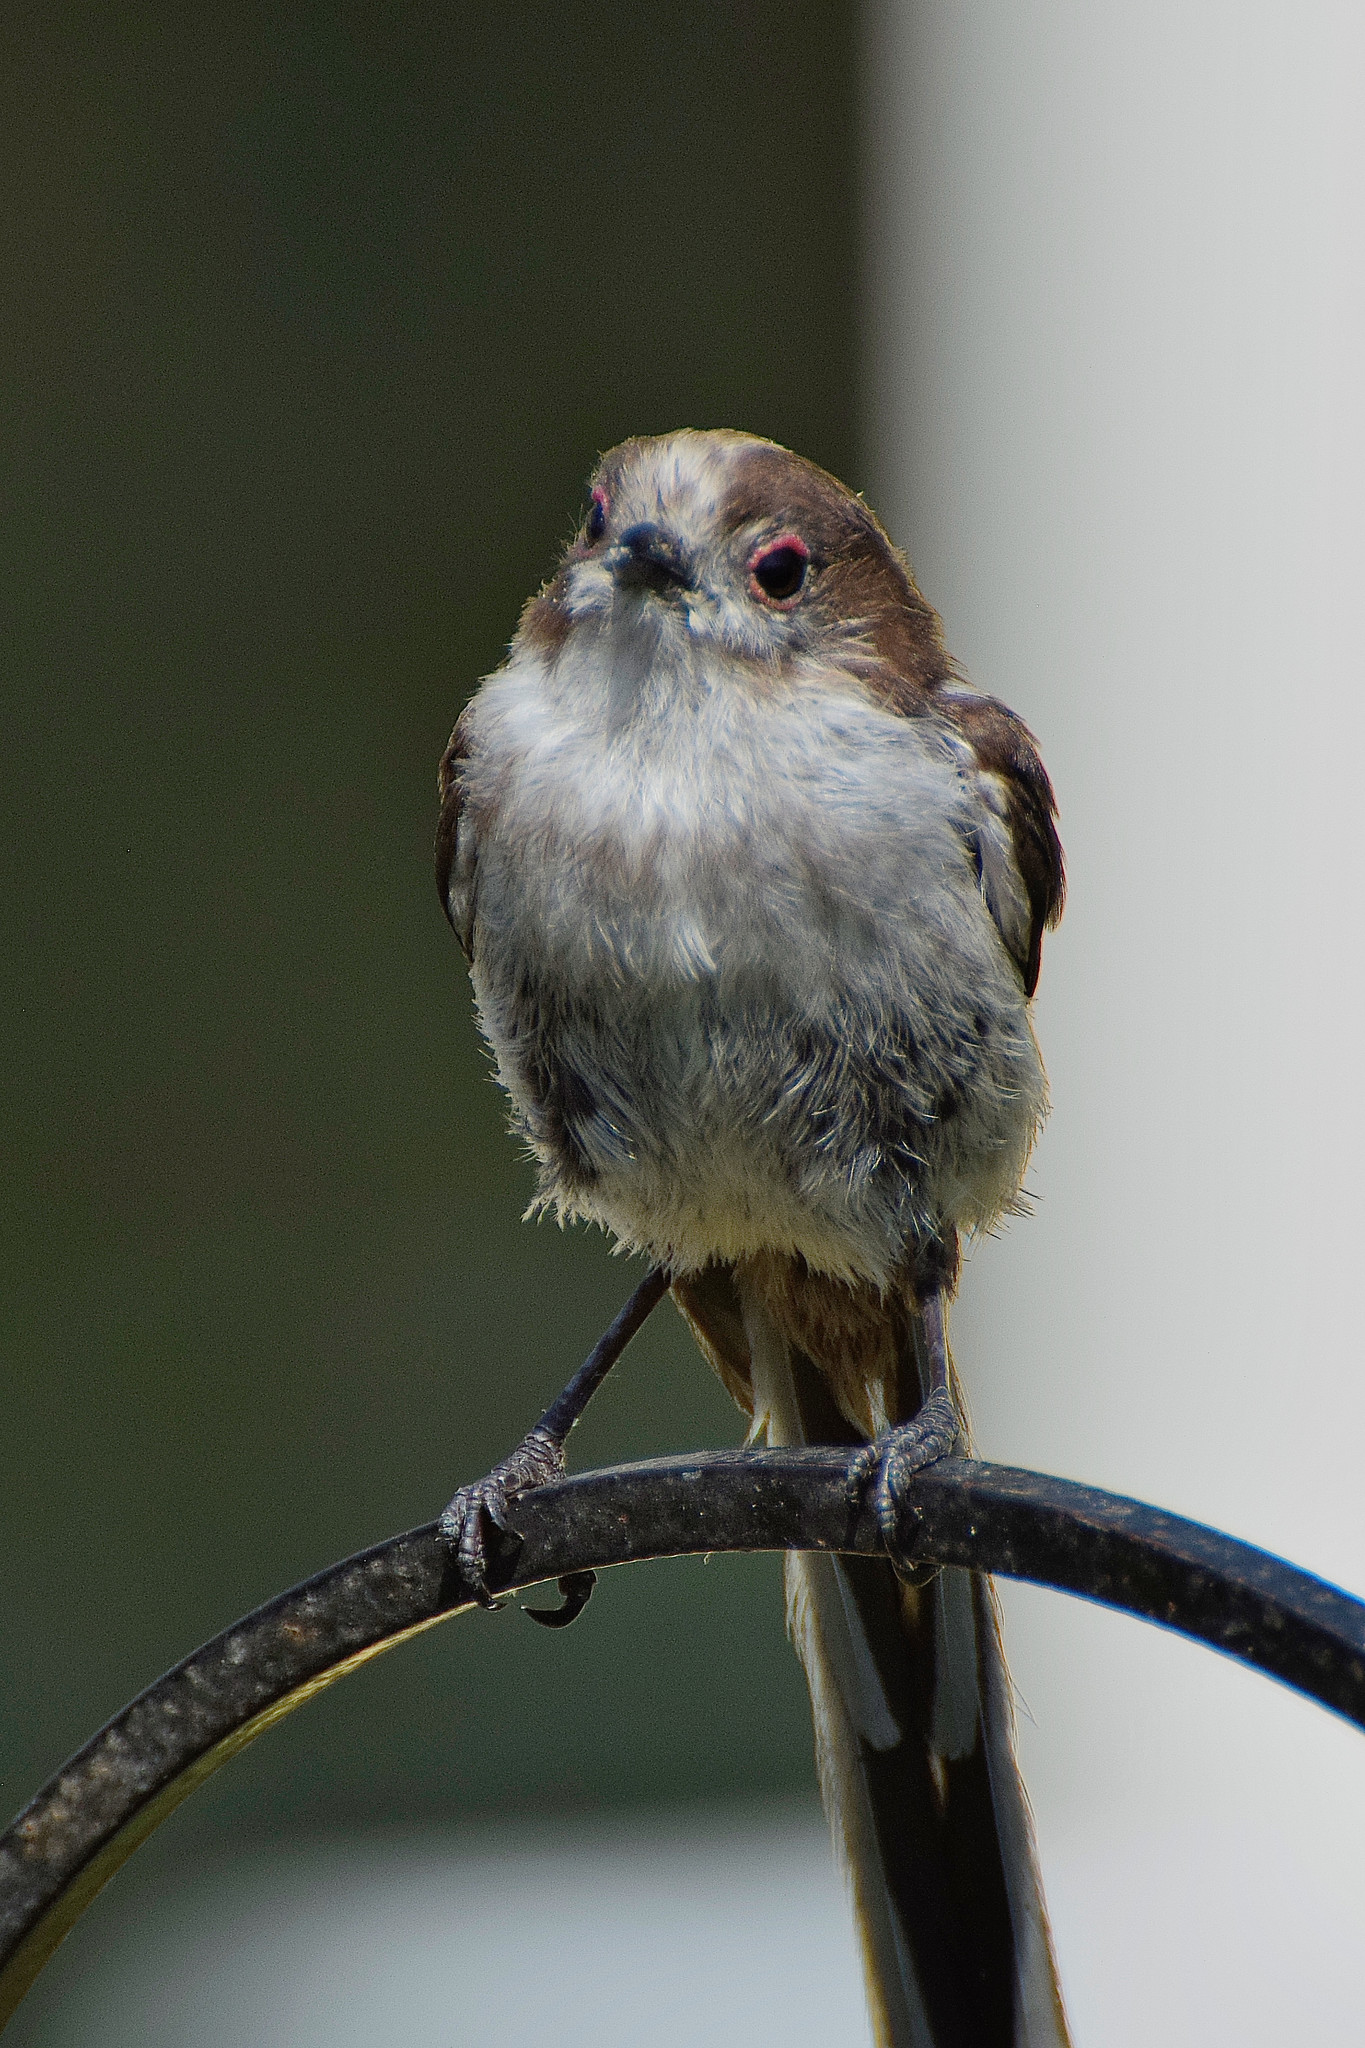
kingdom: Animalia
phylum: Chordata
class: Aves
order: Passeriformes
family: Aegithalidae
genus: Aegithalos
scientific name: Aegithalos caudatus
